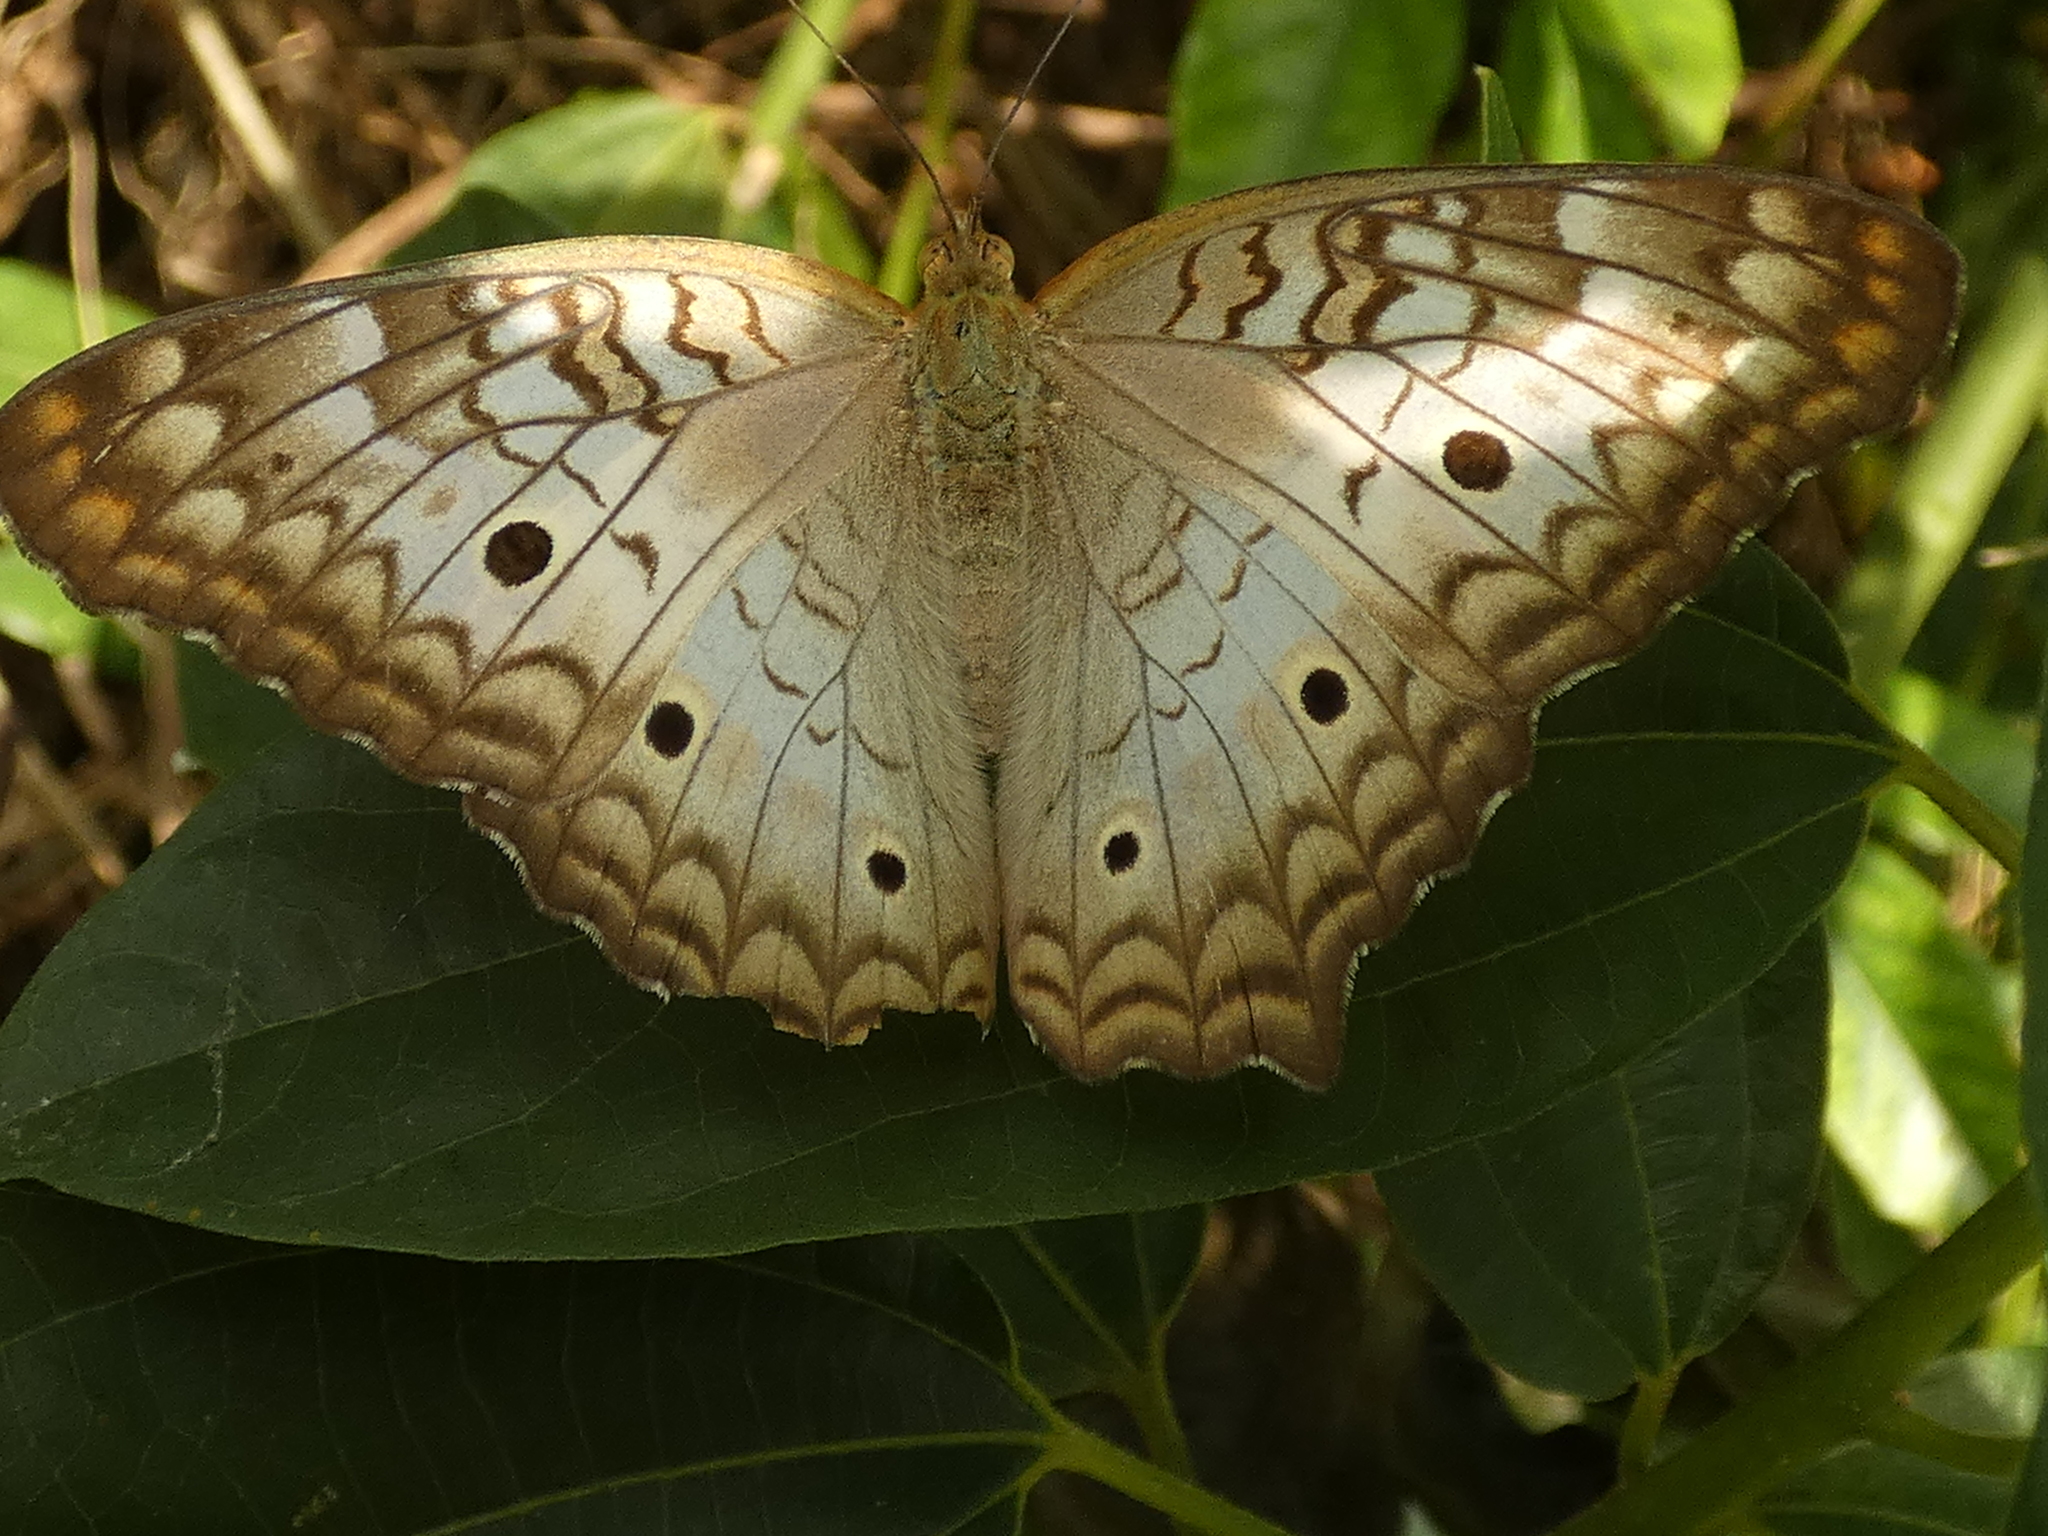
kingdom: Animalia
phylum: Arthropoda
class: Insecta
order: Lepidoptera
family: Nymphalidae
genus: Anartia
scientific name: Anartia jatrophae
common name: White peacock
